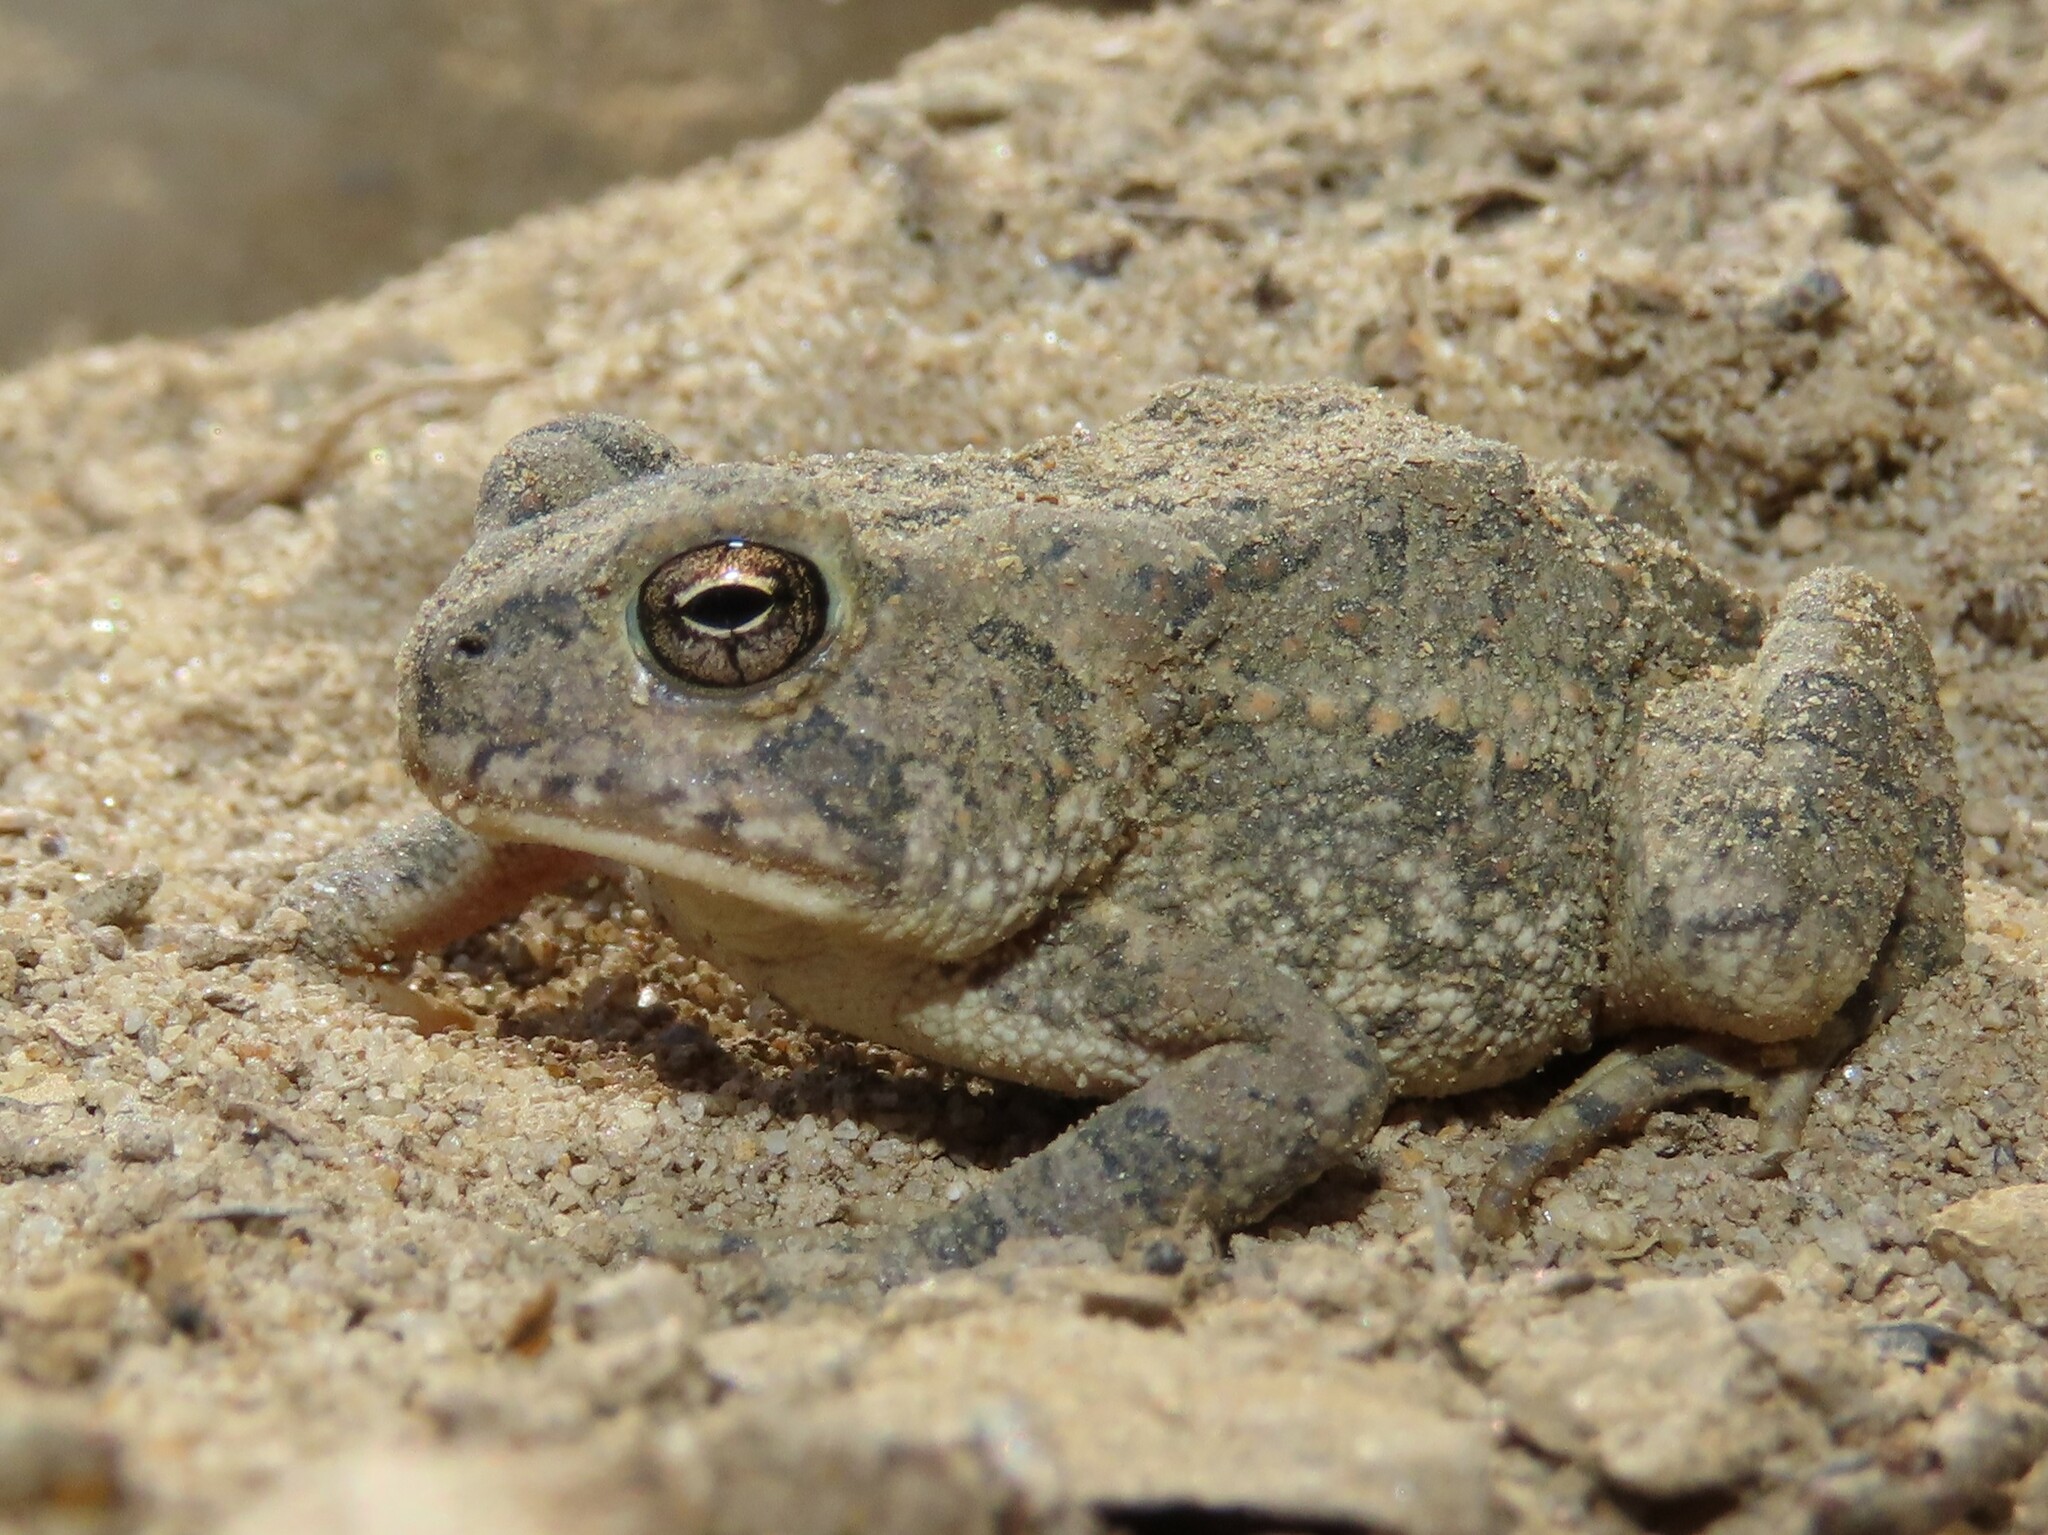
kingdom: Animalia
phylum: Chordata
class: Amphibia
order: Anura
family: Bufonidae
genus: Anaxyrus
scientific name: Anaxyrus fowleri
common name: Fowler's toad
